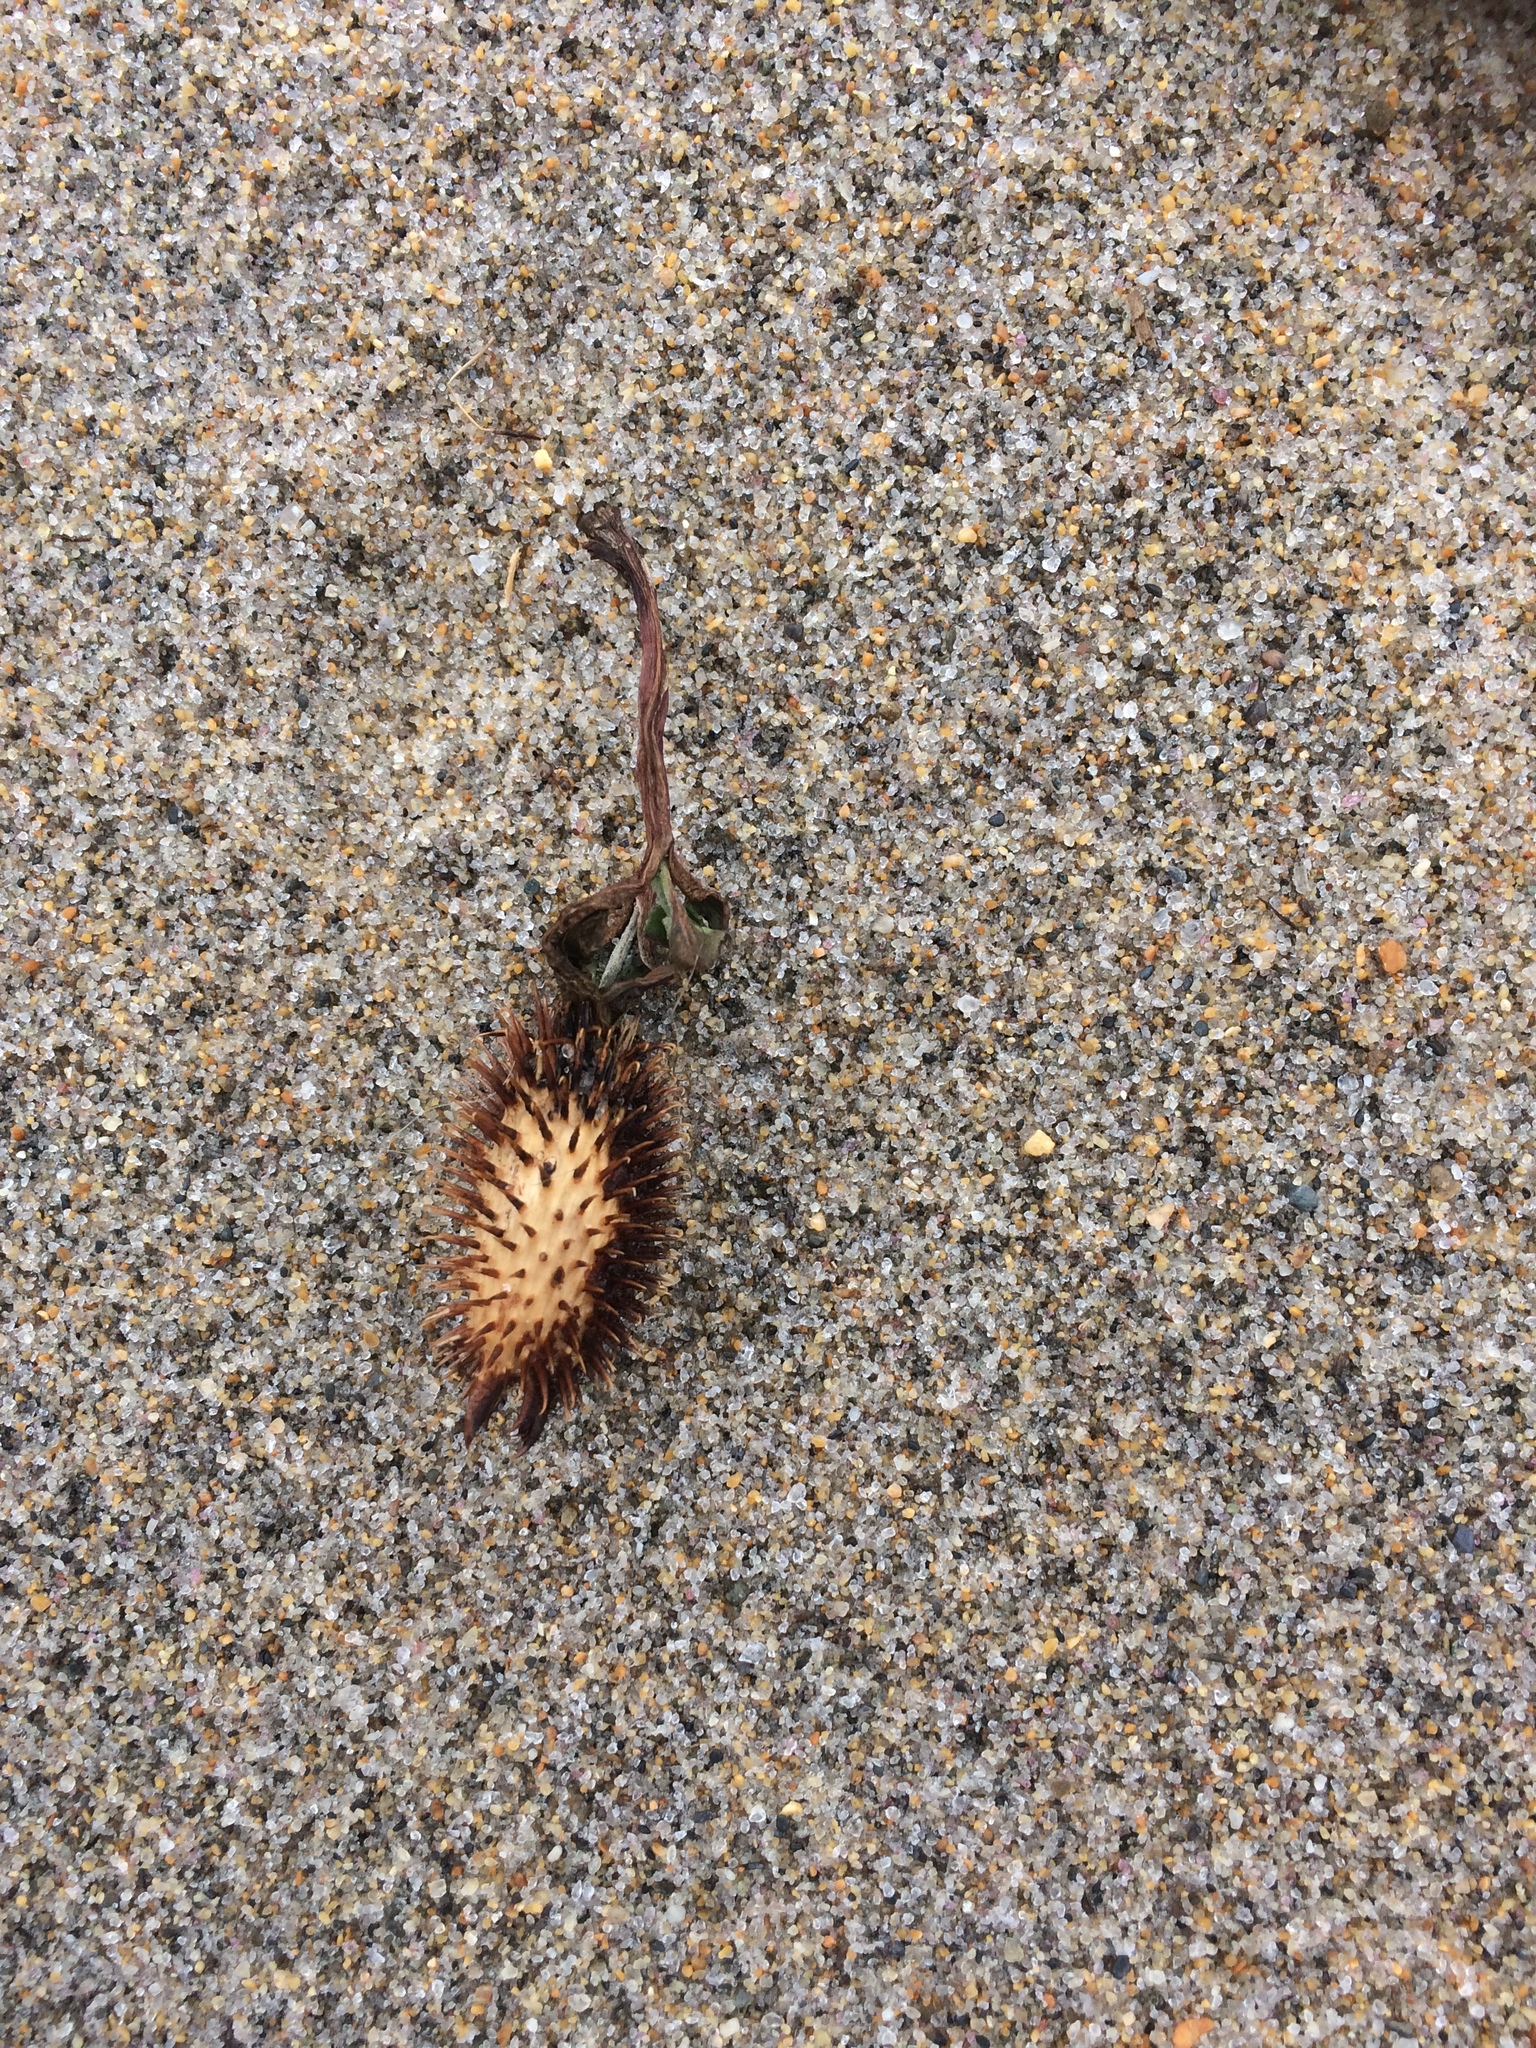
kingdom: Plantae
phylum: Tracheophyta
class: Magnoliopsida
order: Asterales
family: Asteraceae
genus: Xanthium
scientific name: Xanthium strumarium
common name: Rough cocklebur
